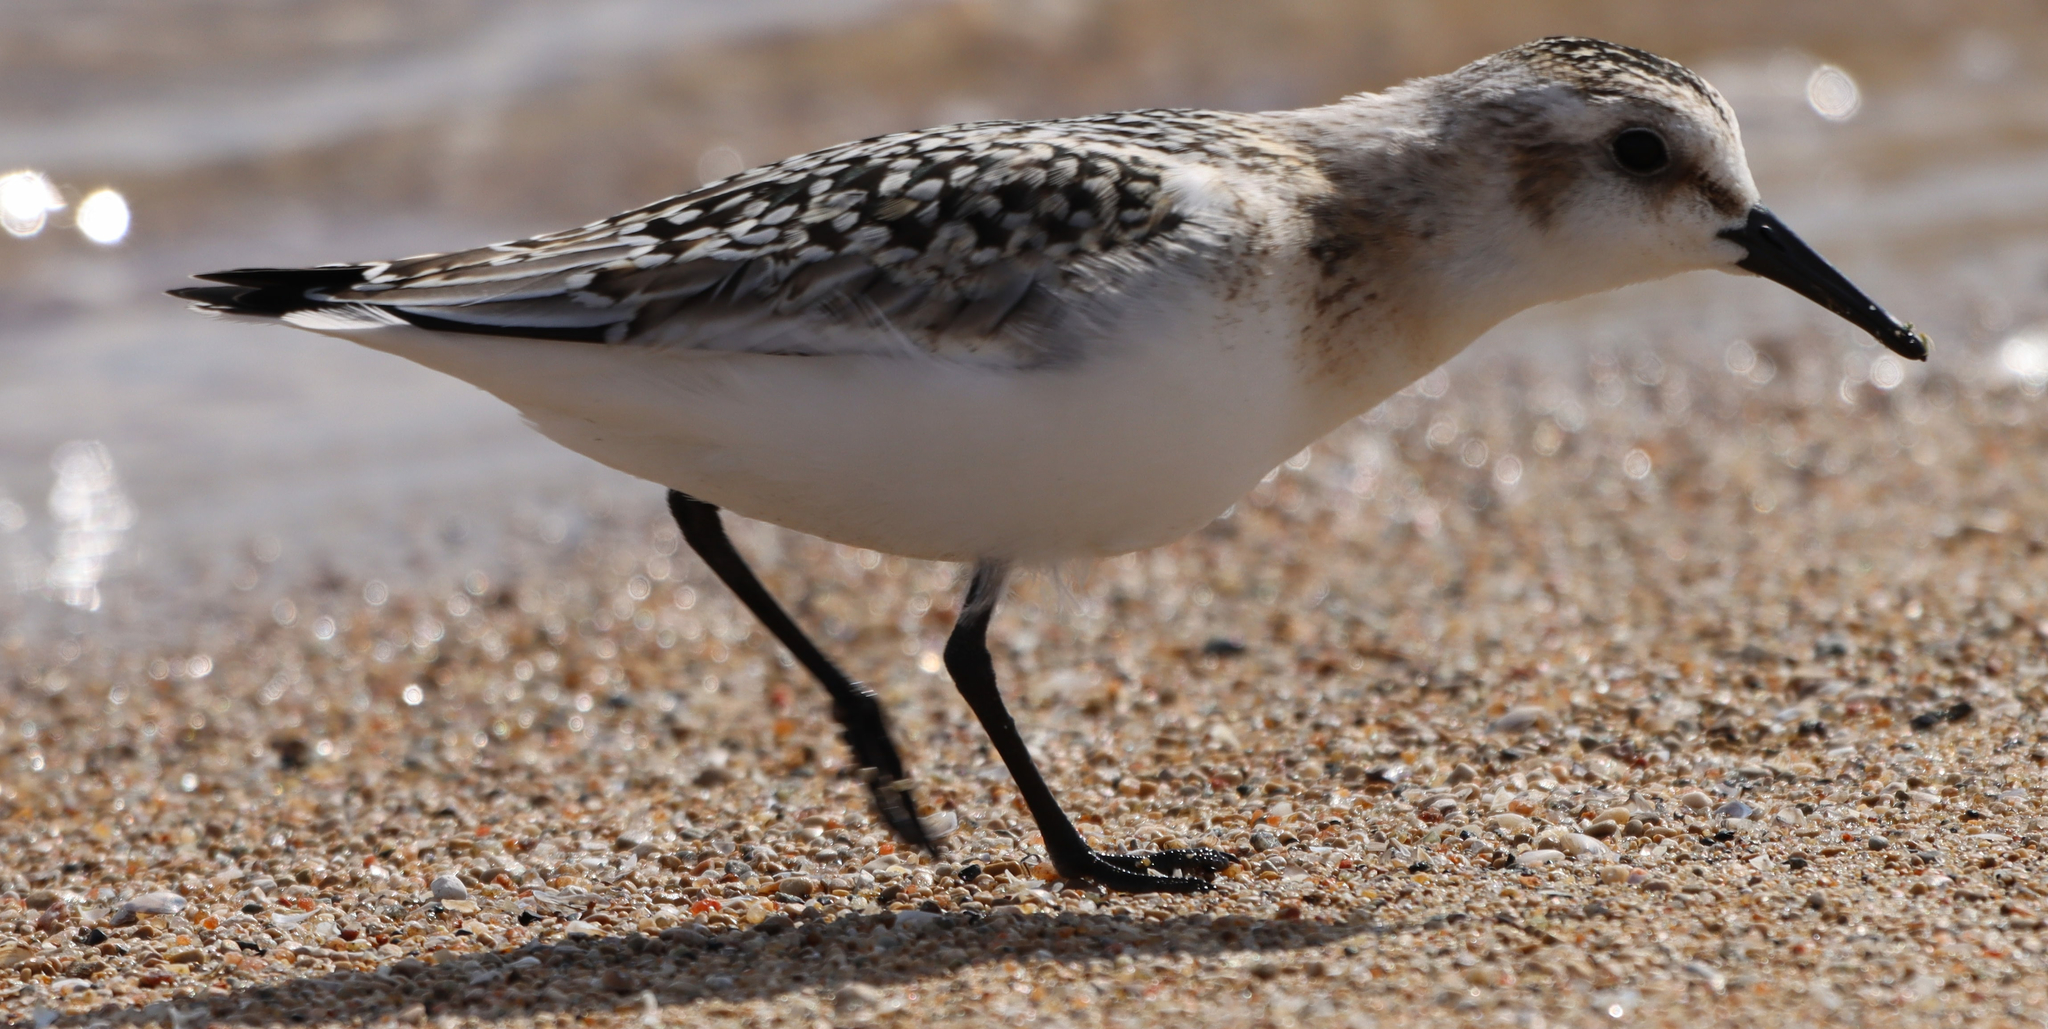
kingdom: Animalia
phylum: Chordata
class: Aves
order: Charadriiformes
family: Scolopacidae
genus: Calidris
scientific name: Calidris alba
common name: Sanderling
